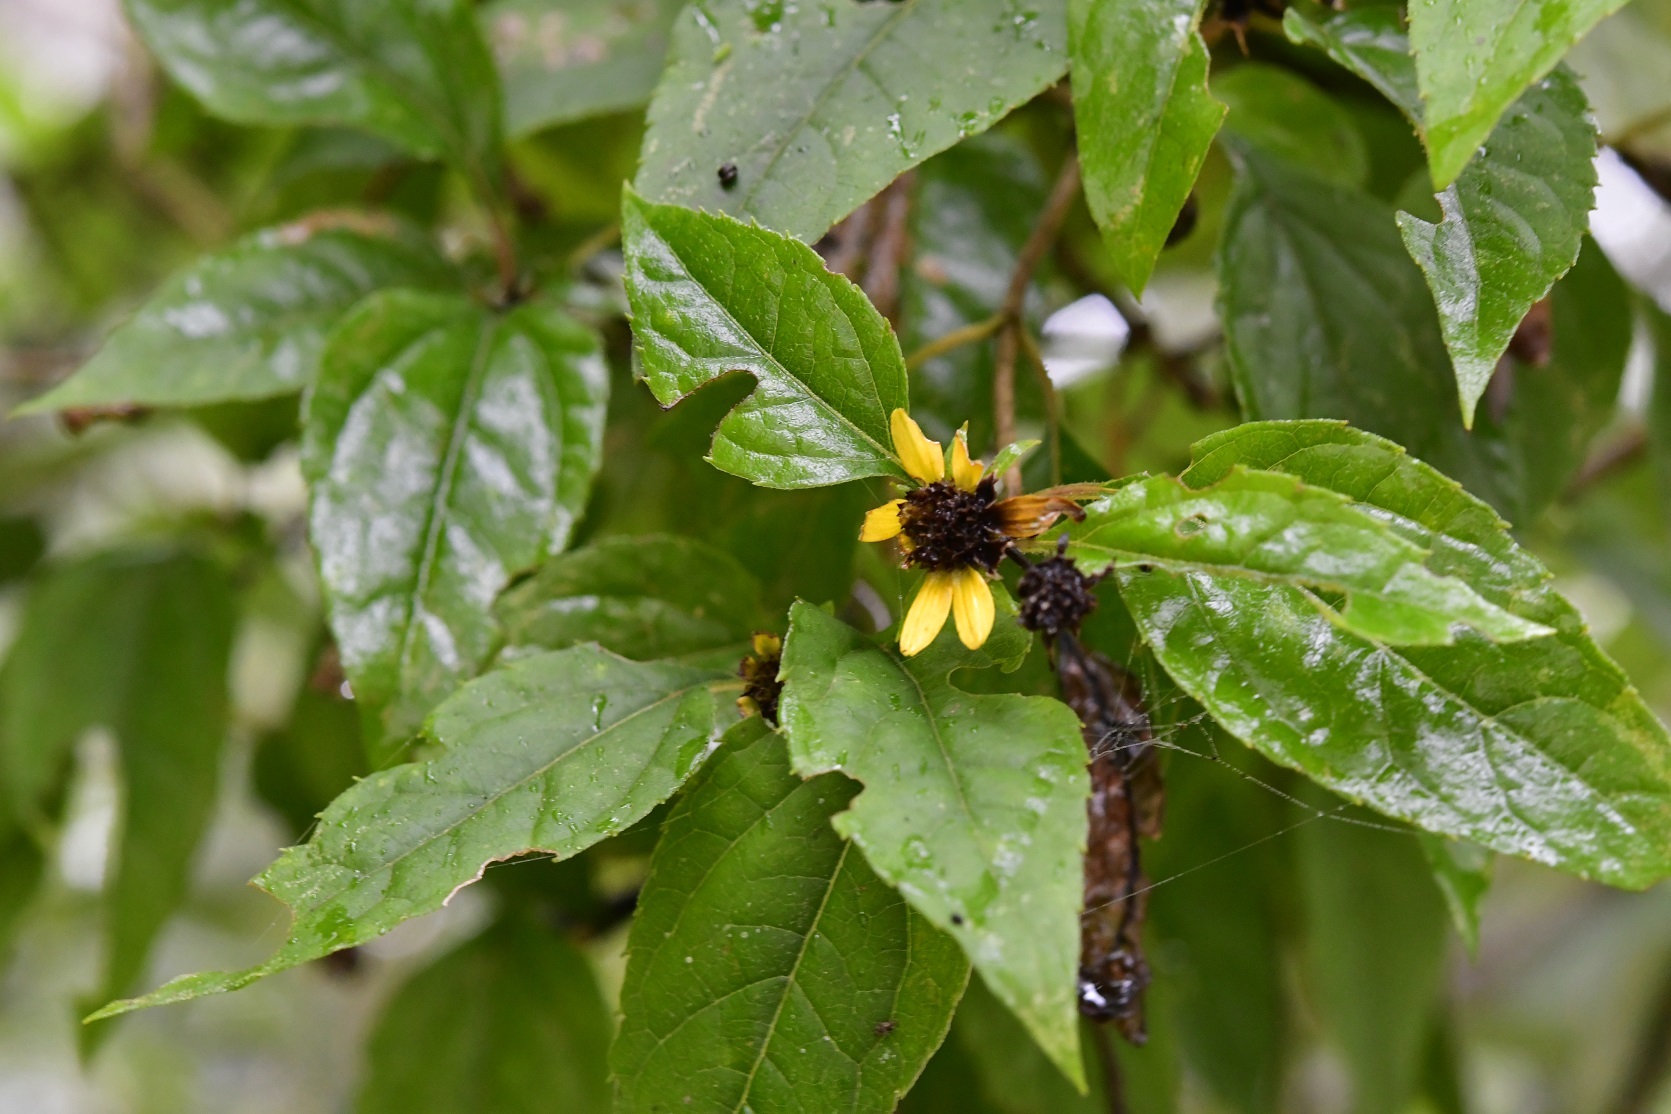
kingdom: Plantae
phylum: Tracheophyta
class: Magnoliopsida
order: Asterales
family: Asteraceae
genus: Philactis
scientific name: Philactis zinnioides
